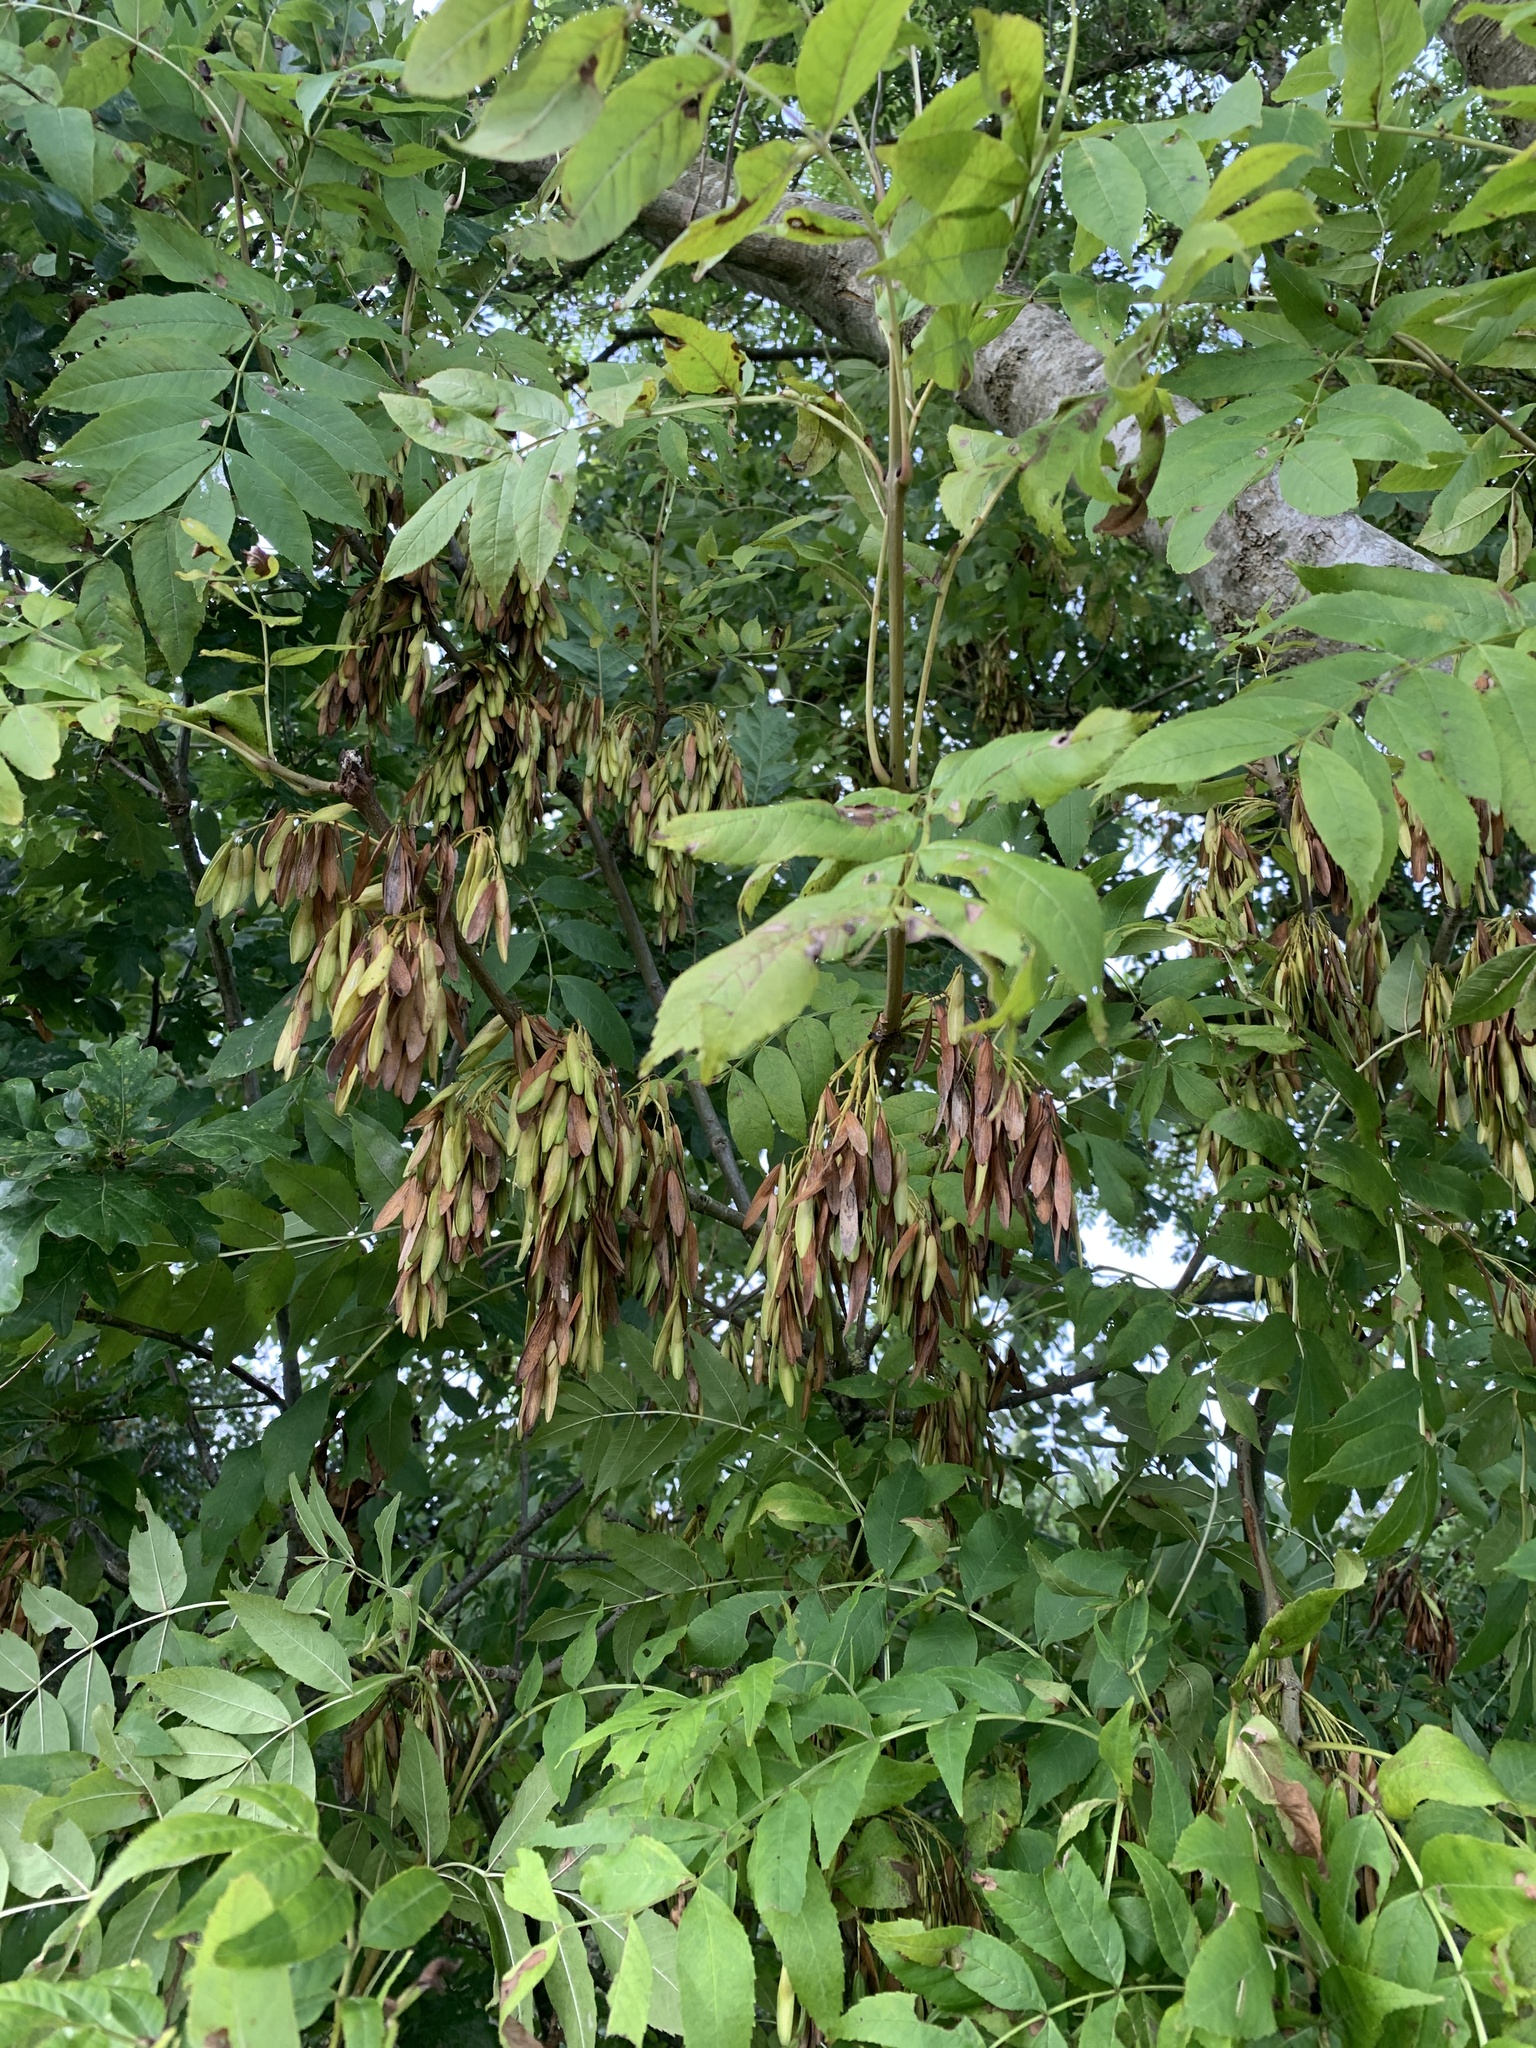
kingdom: Plantae
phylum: Tracheophyta
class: Magnoliopsida
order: Lamiales
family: Oleaceae
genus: Fraxinus
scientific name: Fraxinus excelsior
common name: European ash
